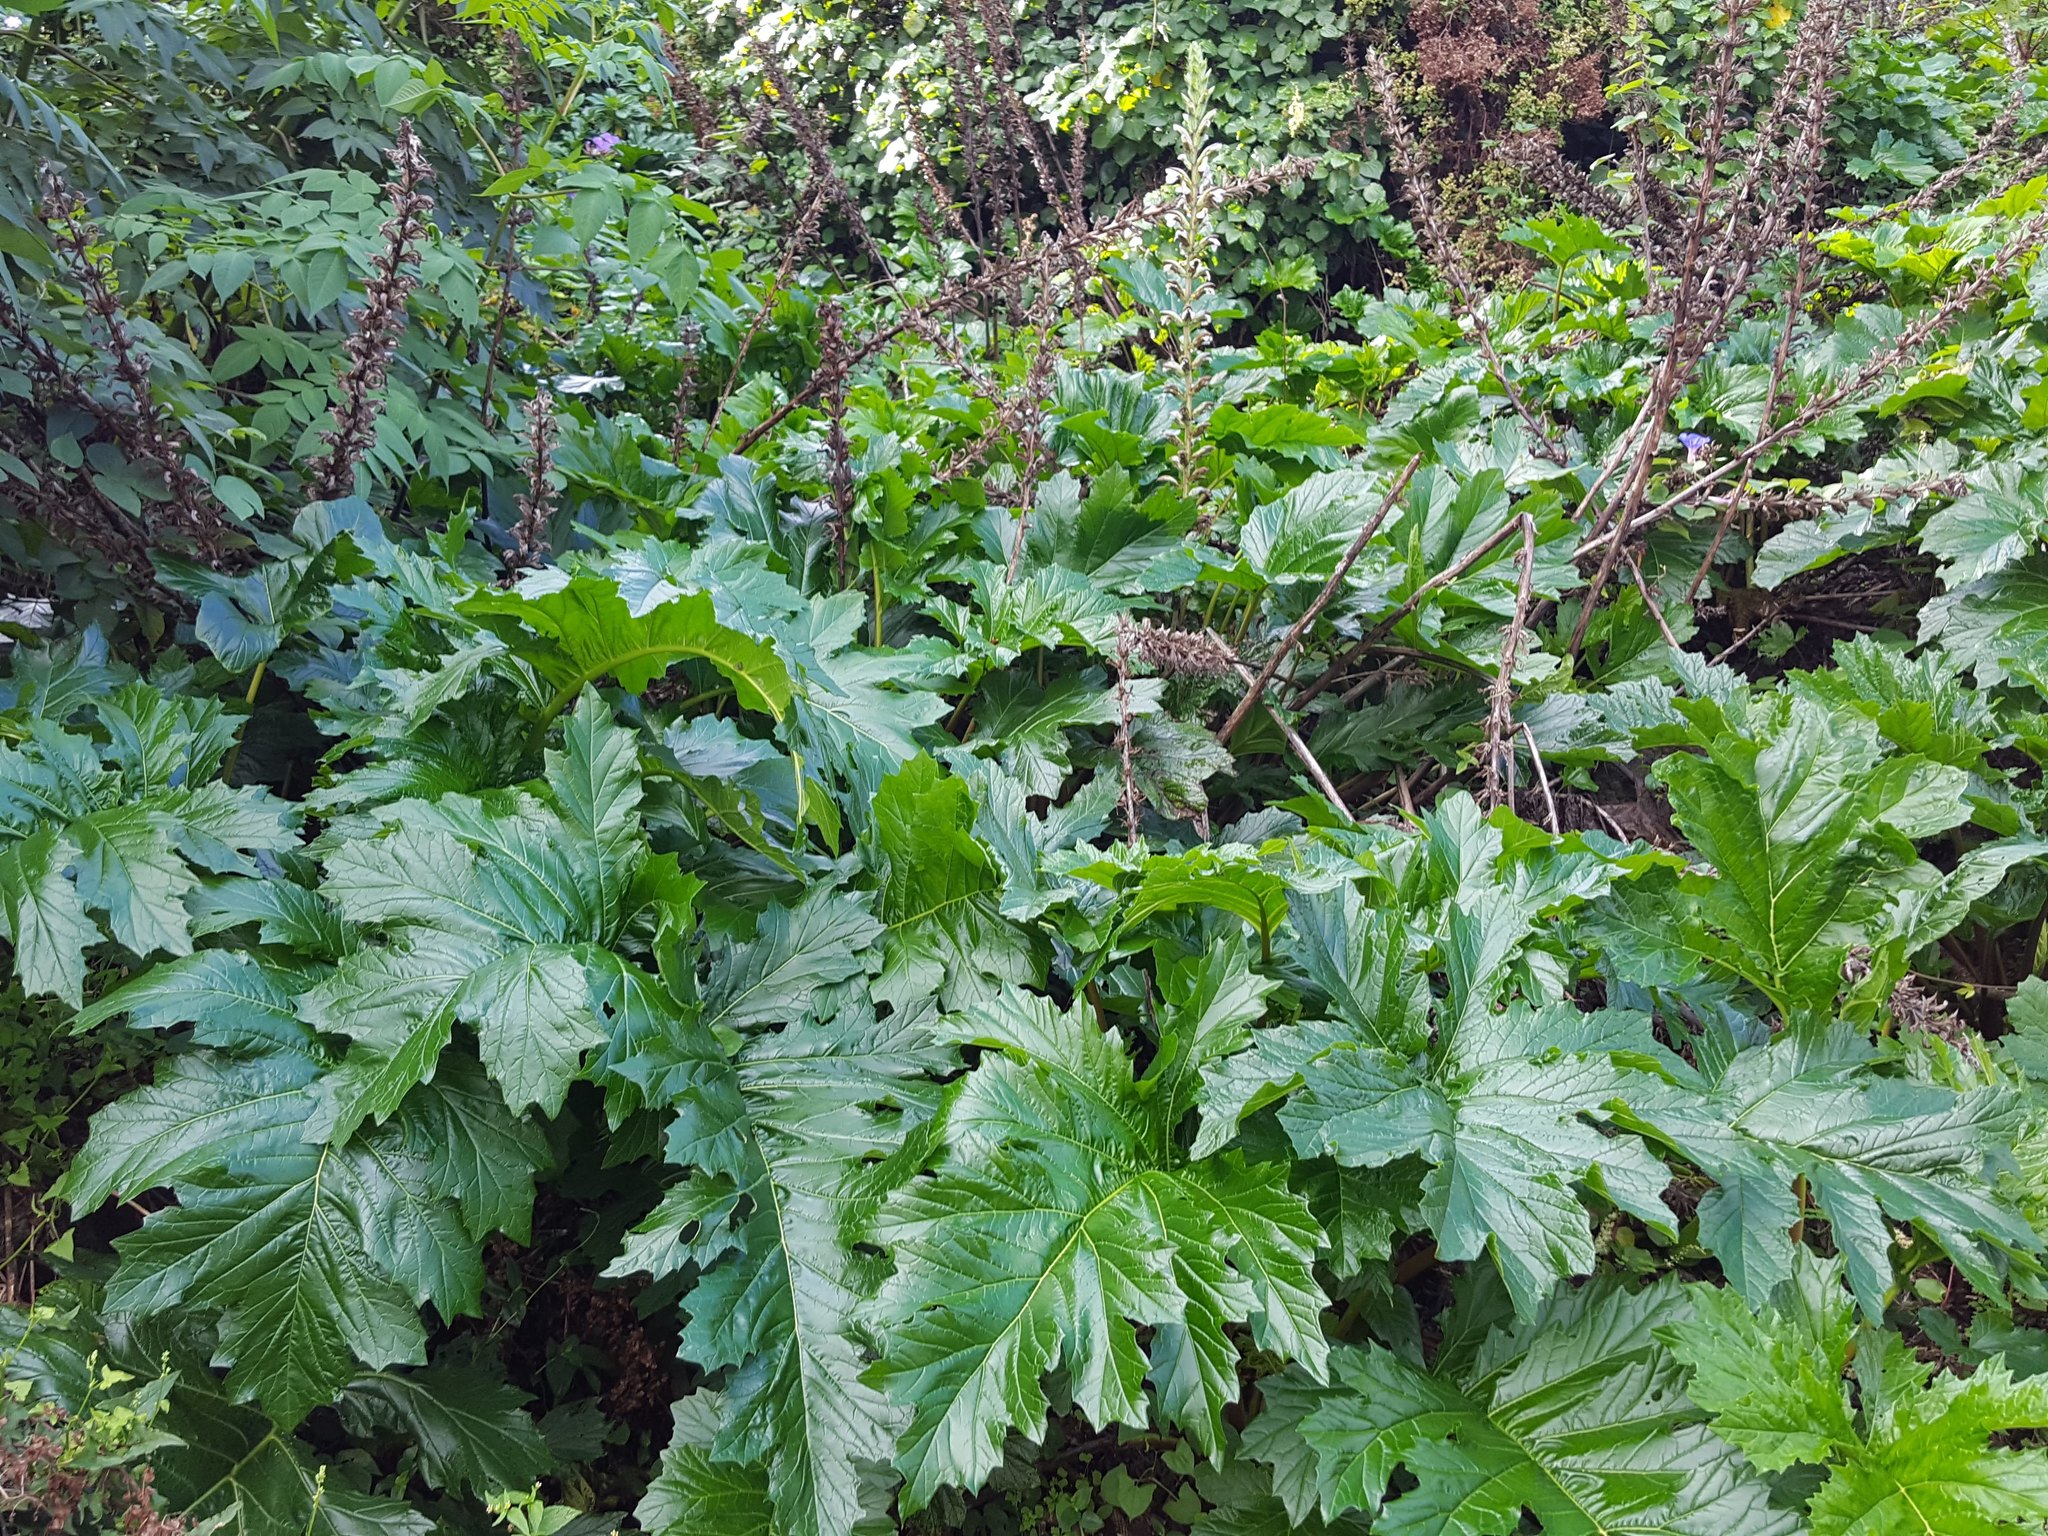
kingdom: Plantae
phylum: Tracheophyta
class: Magnoliopsida
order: Lamiales
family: Acanthaceae
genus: Acanthus
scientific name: Acanthus mollis
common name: Bear's-breech
